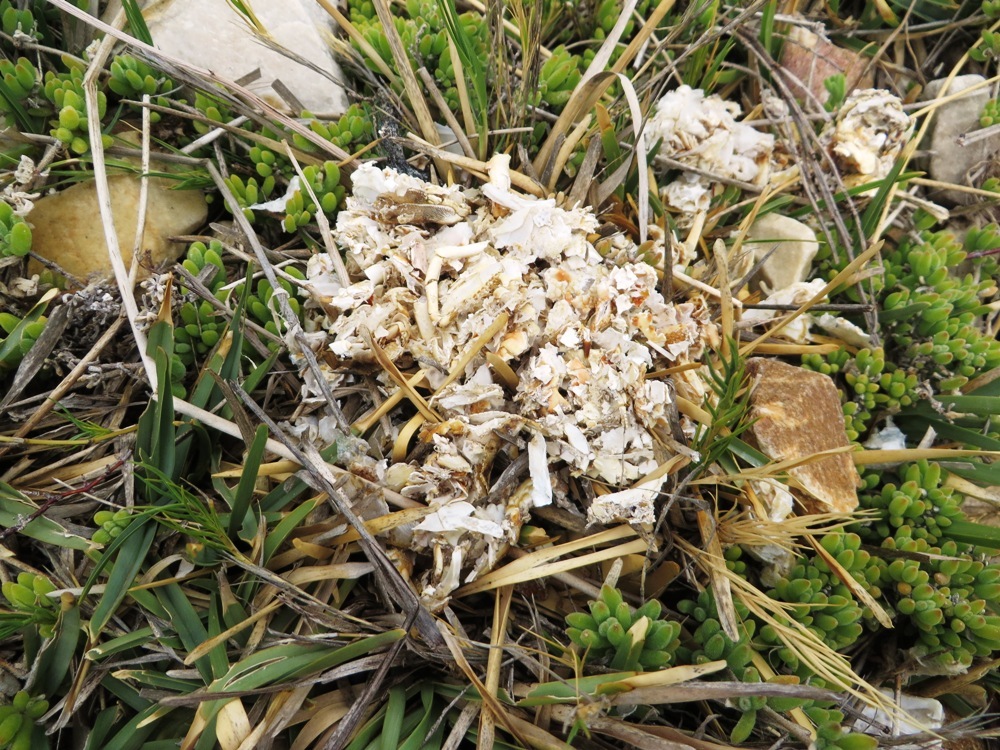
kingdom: Animalia
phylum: Chordata
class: Mammalia
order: Carnivora
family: Mustelidae
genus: Aonyx
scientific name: Aonyx capensis
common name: African clawless otter
